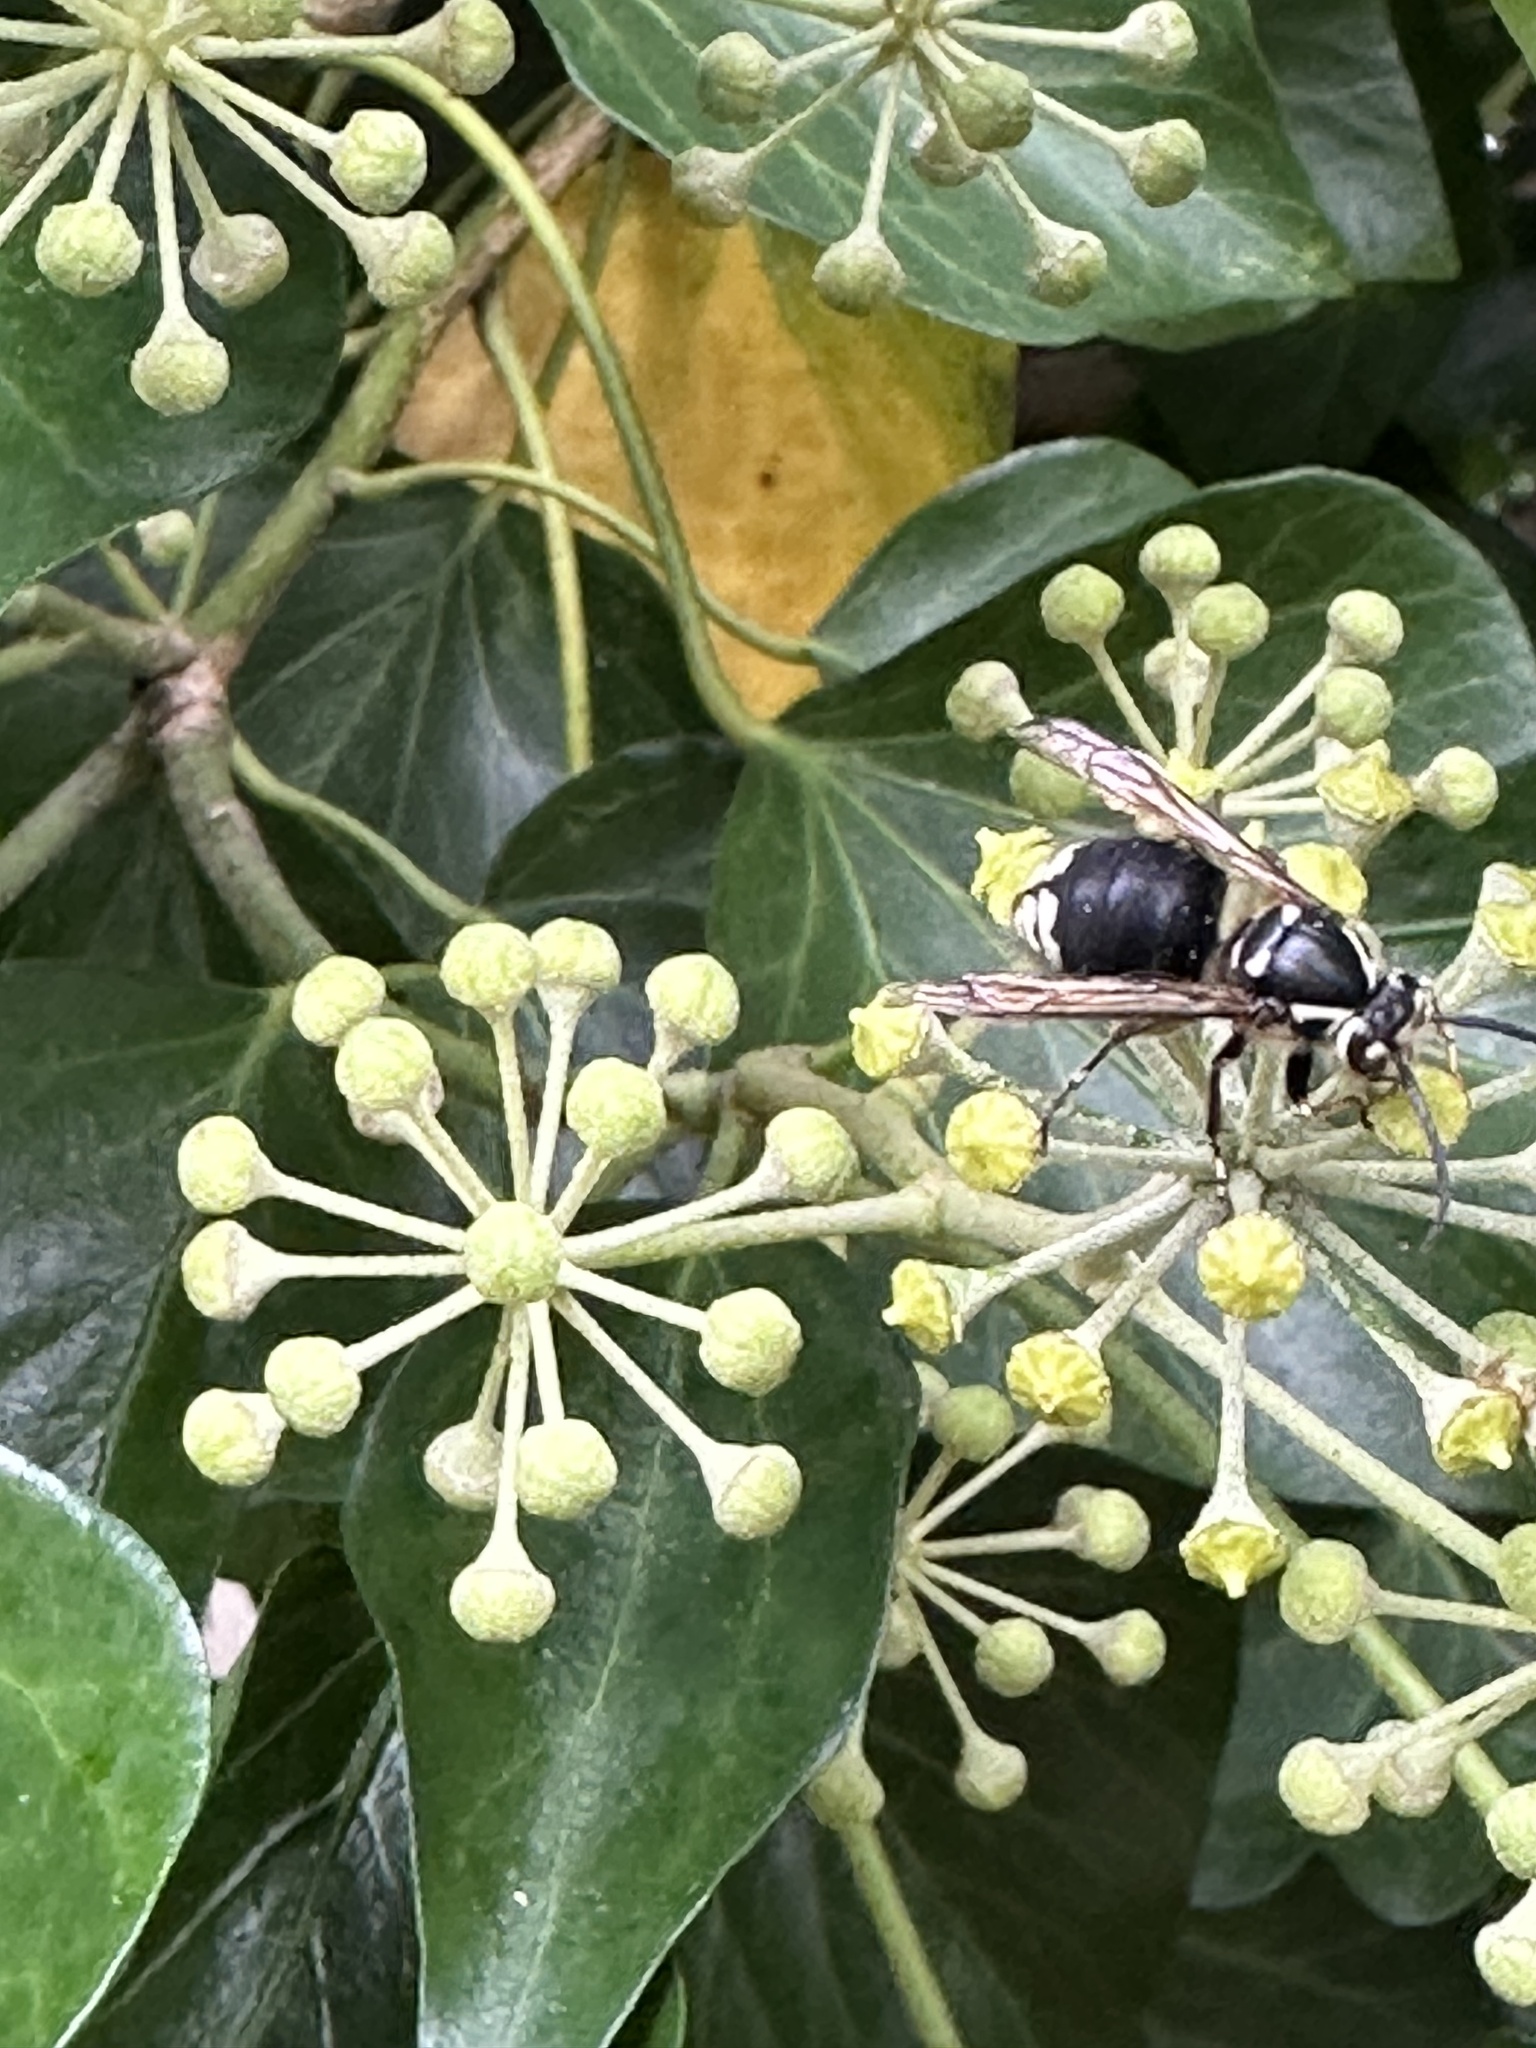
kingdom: Animalia
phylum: Arthropoda
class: Insecta
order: Hymenoptera
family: Vespidae
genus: Dolichovespula
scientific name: Dolichovespula maculata
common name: Bald-faced hornet
